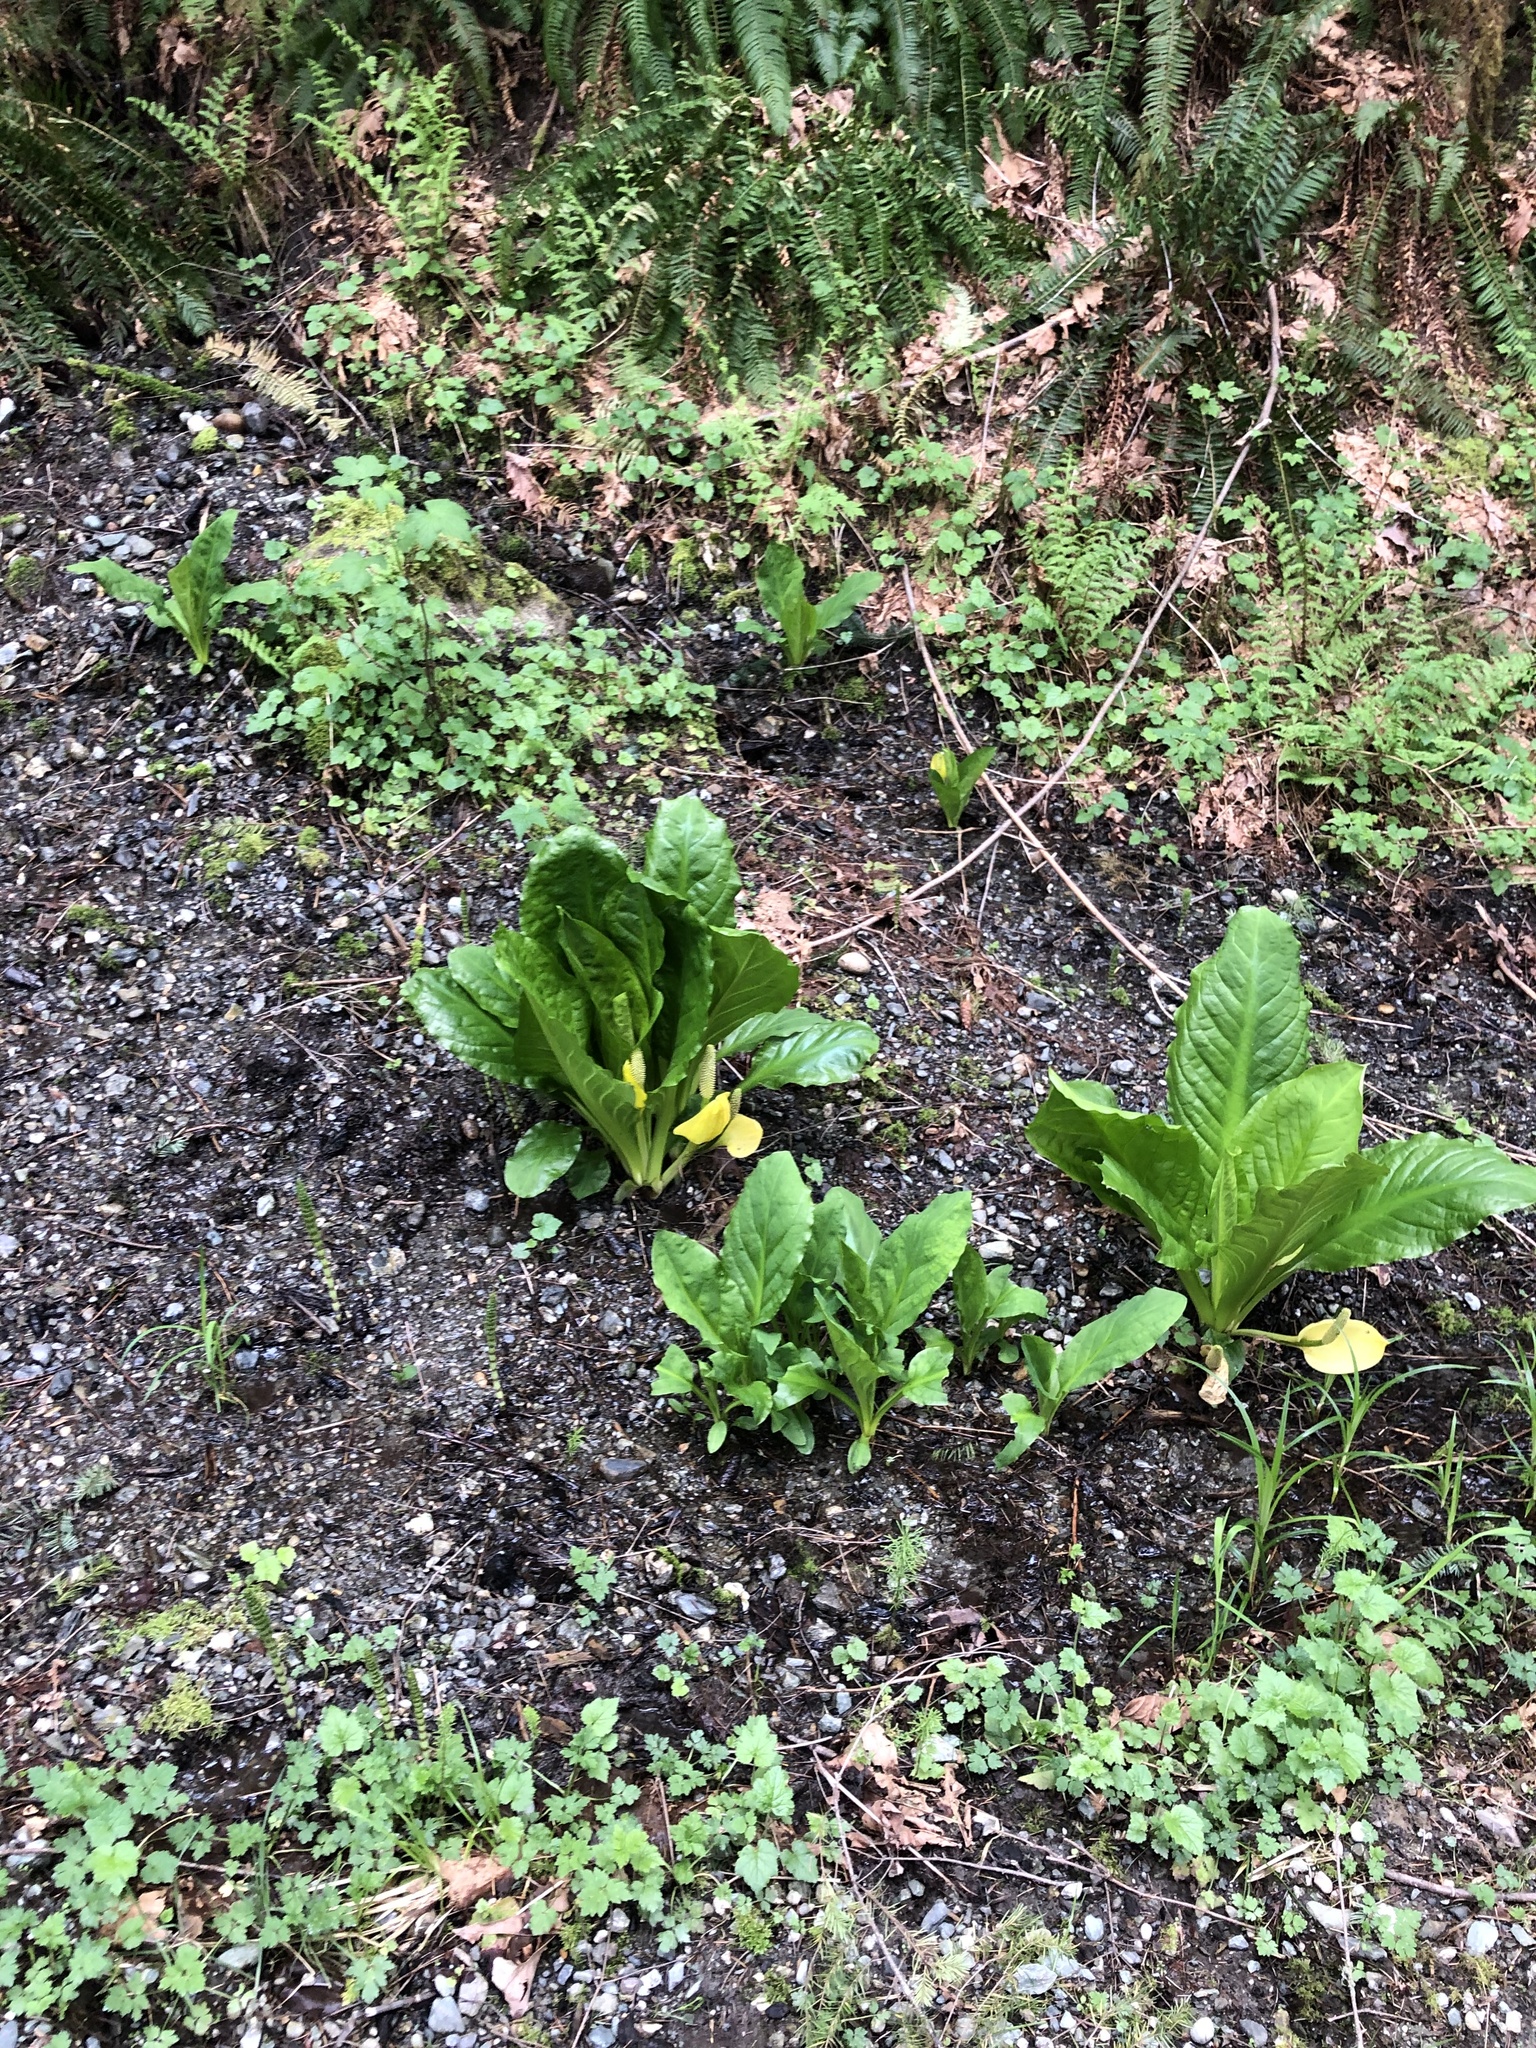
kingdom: Plantae
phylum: Tracheophyta
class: Liliopsida
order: Alismatales
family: Araceae
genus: Lysichiton
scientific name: Lysichiton americanus
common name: American skunk cabbage
